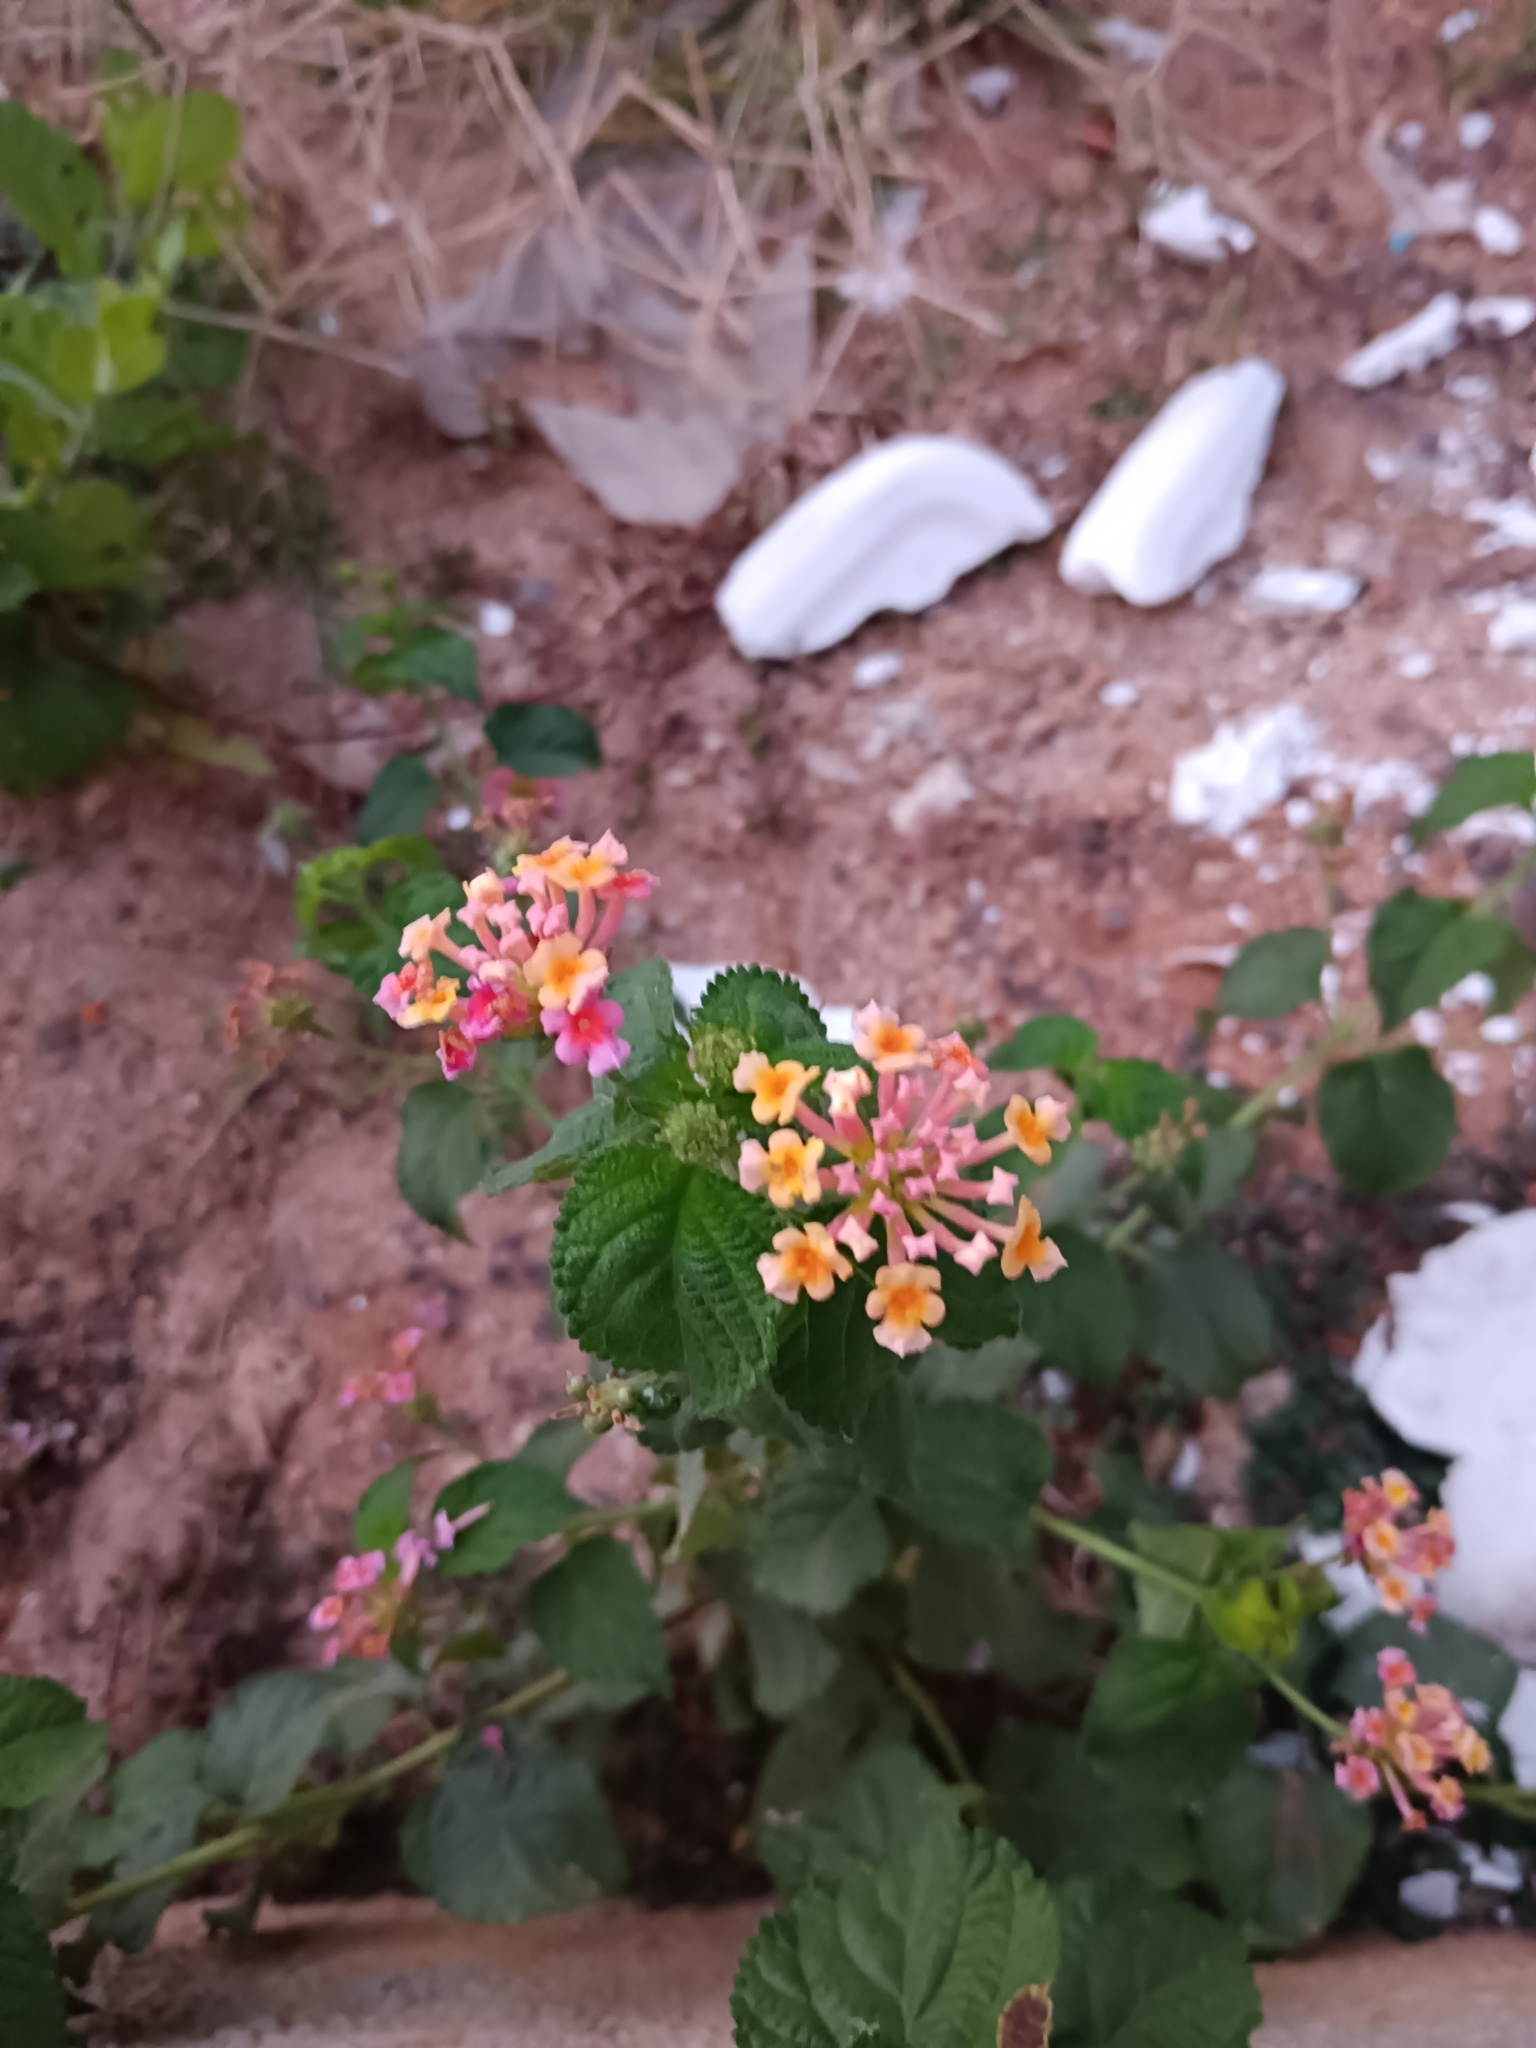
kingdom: Plantae
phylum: Tracheophyta
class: Magnoliopsida
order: Lamiales
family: Verbenaceae
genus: Lantana
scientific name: Lantana camara
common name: Lantana
